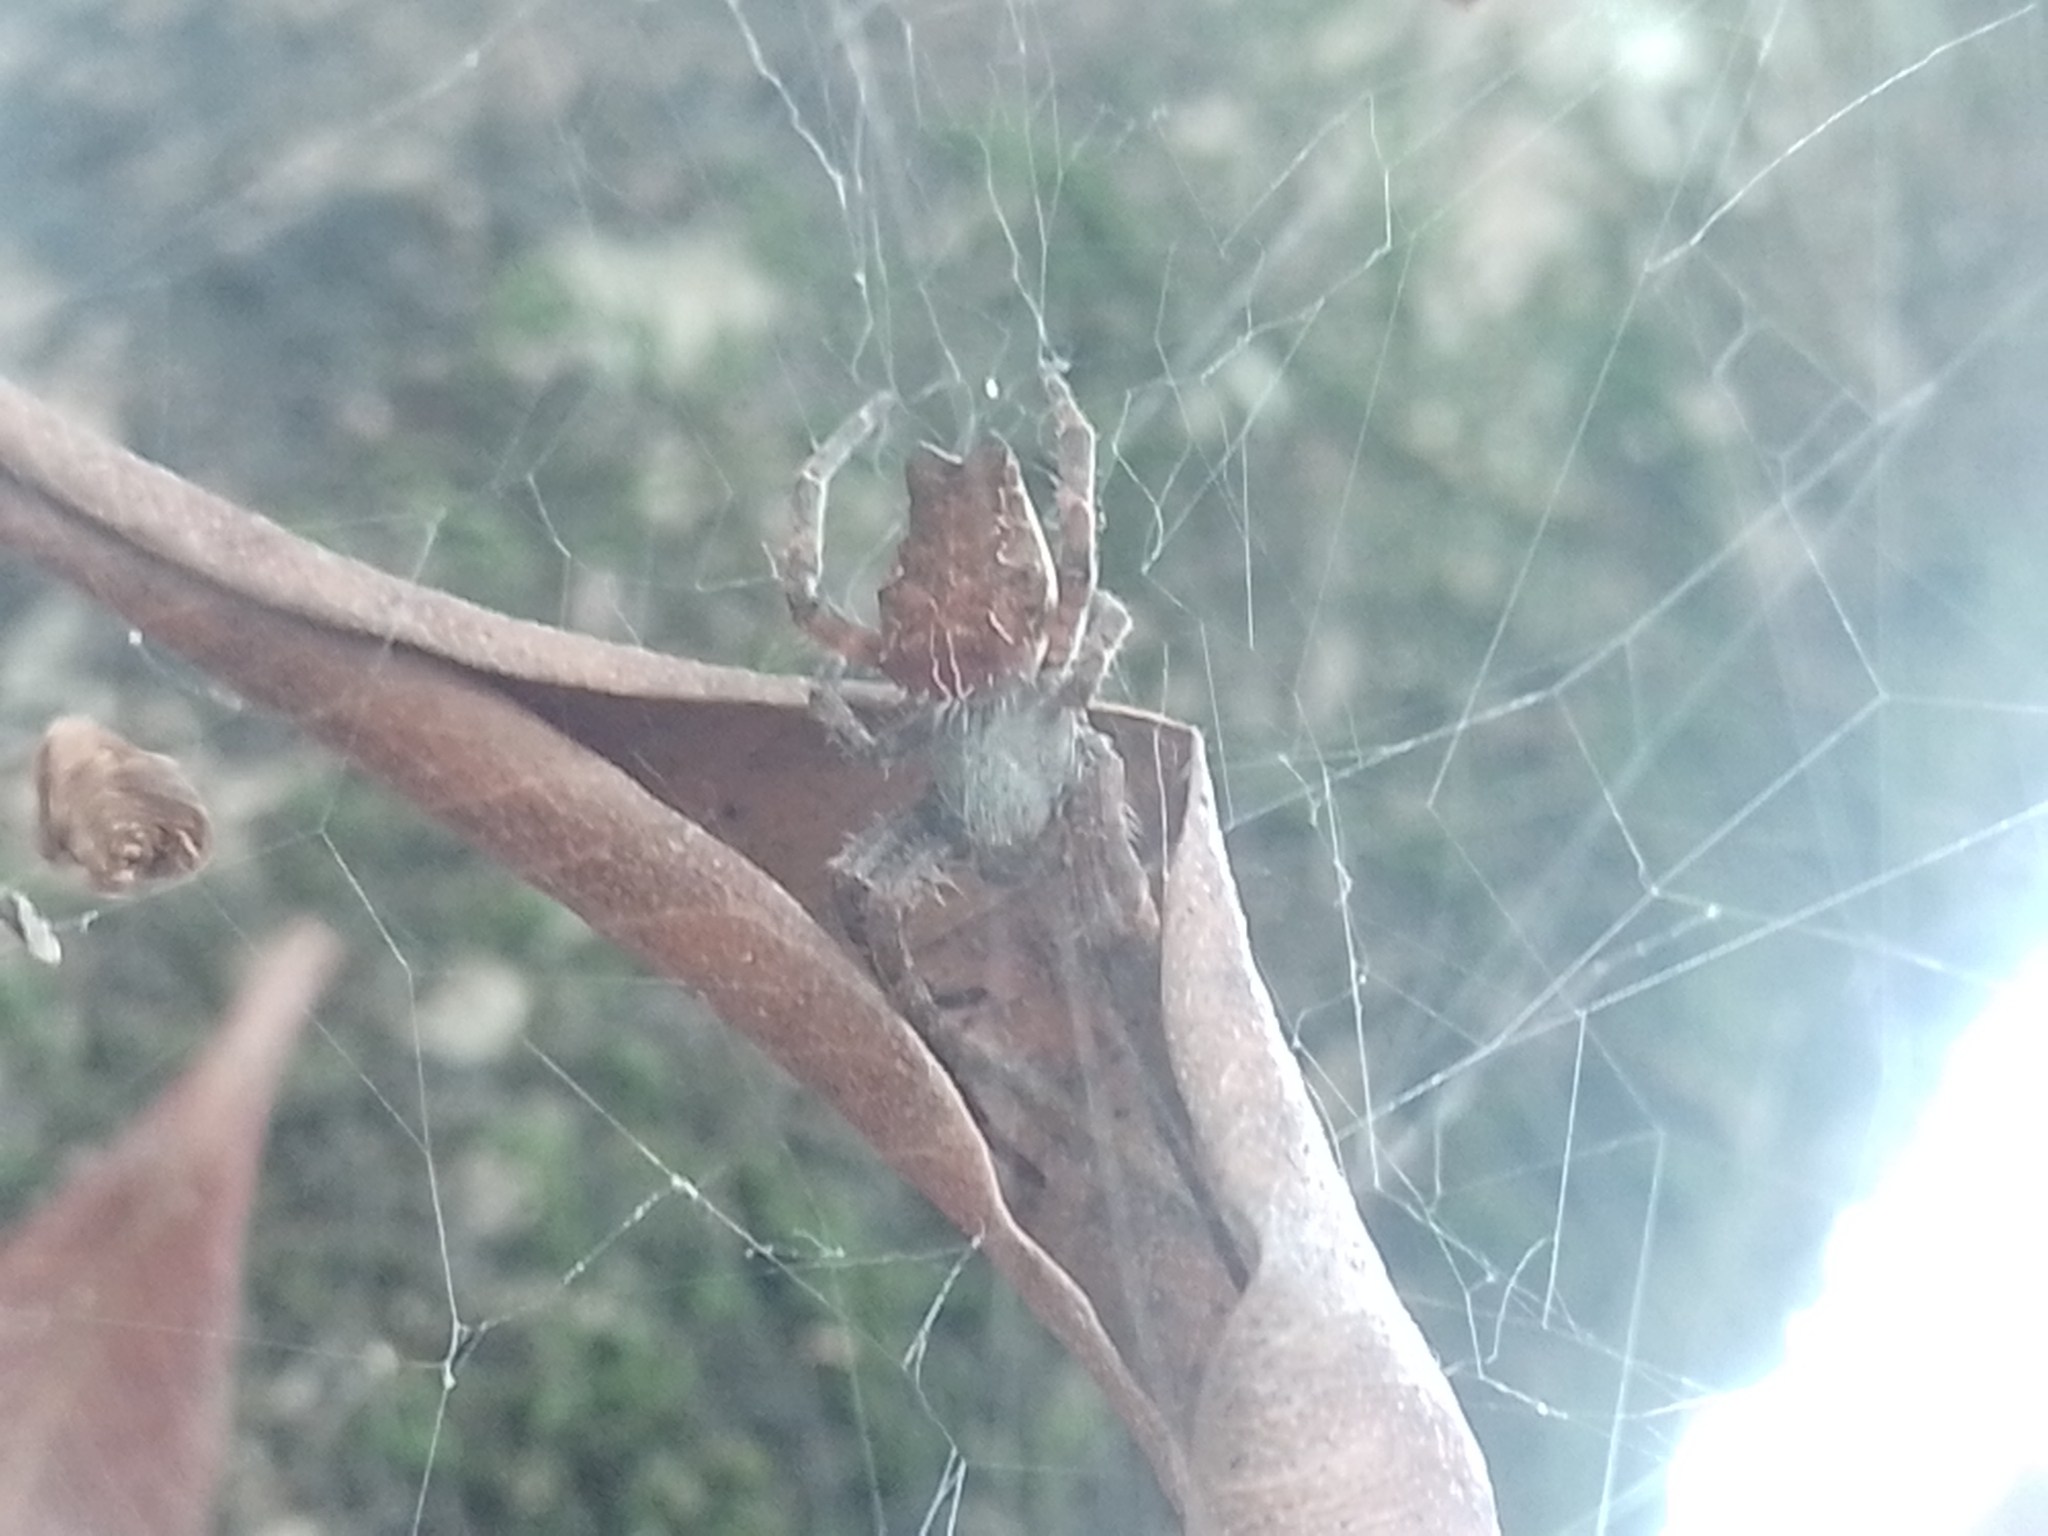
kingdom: Animalia
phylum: Arthropoda
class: Arachnida
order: Araneae
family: Araneidae
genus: Cyrtophora
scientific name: Cyrtophora citricola
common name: Orb weavers
